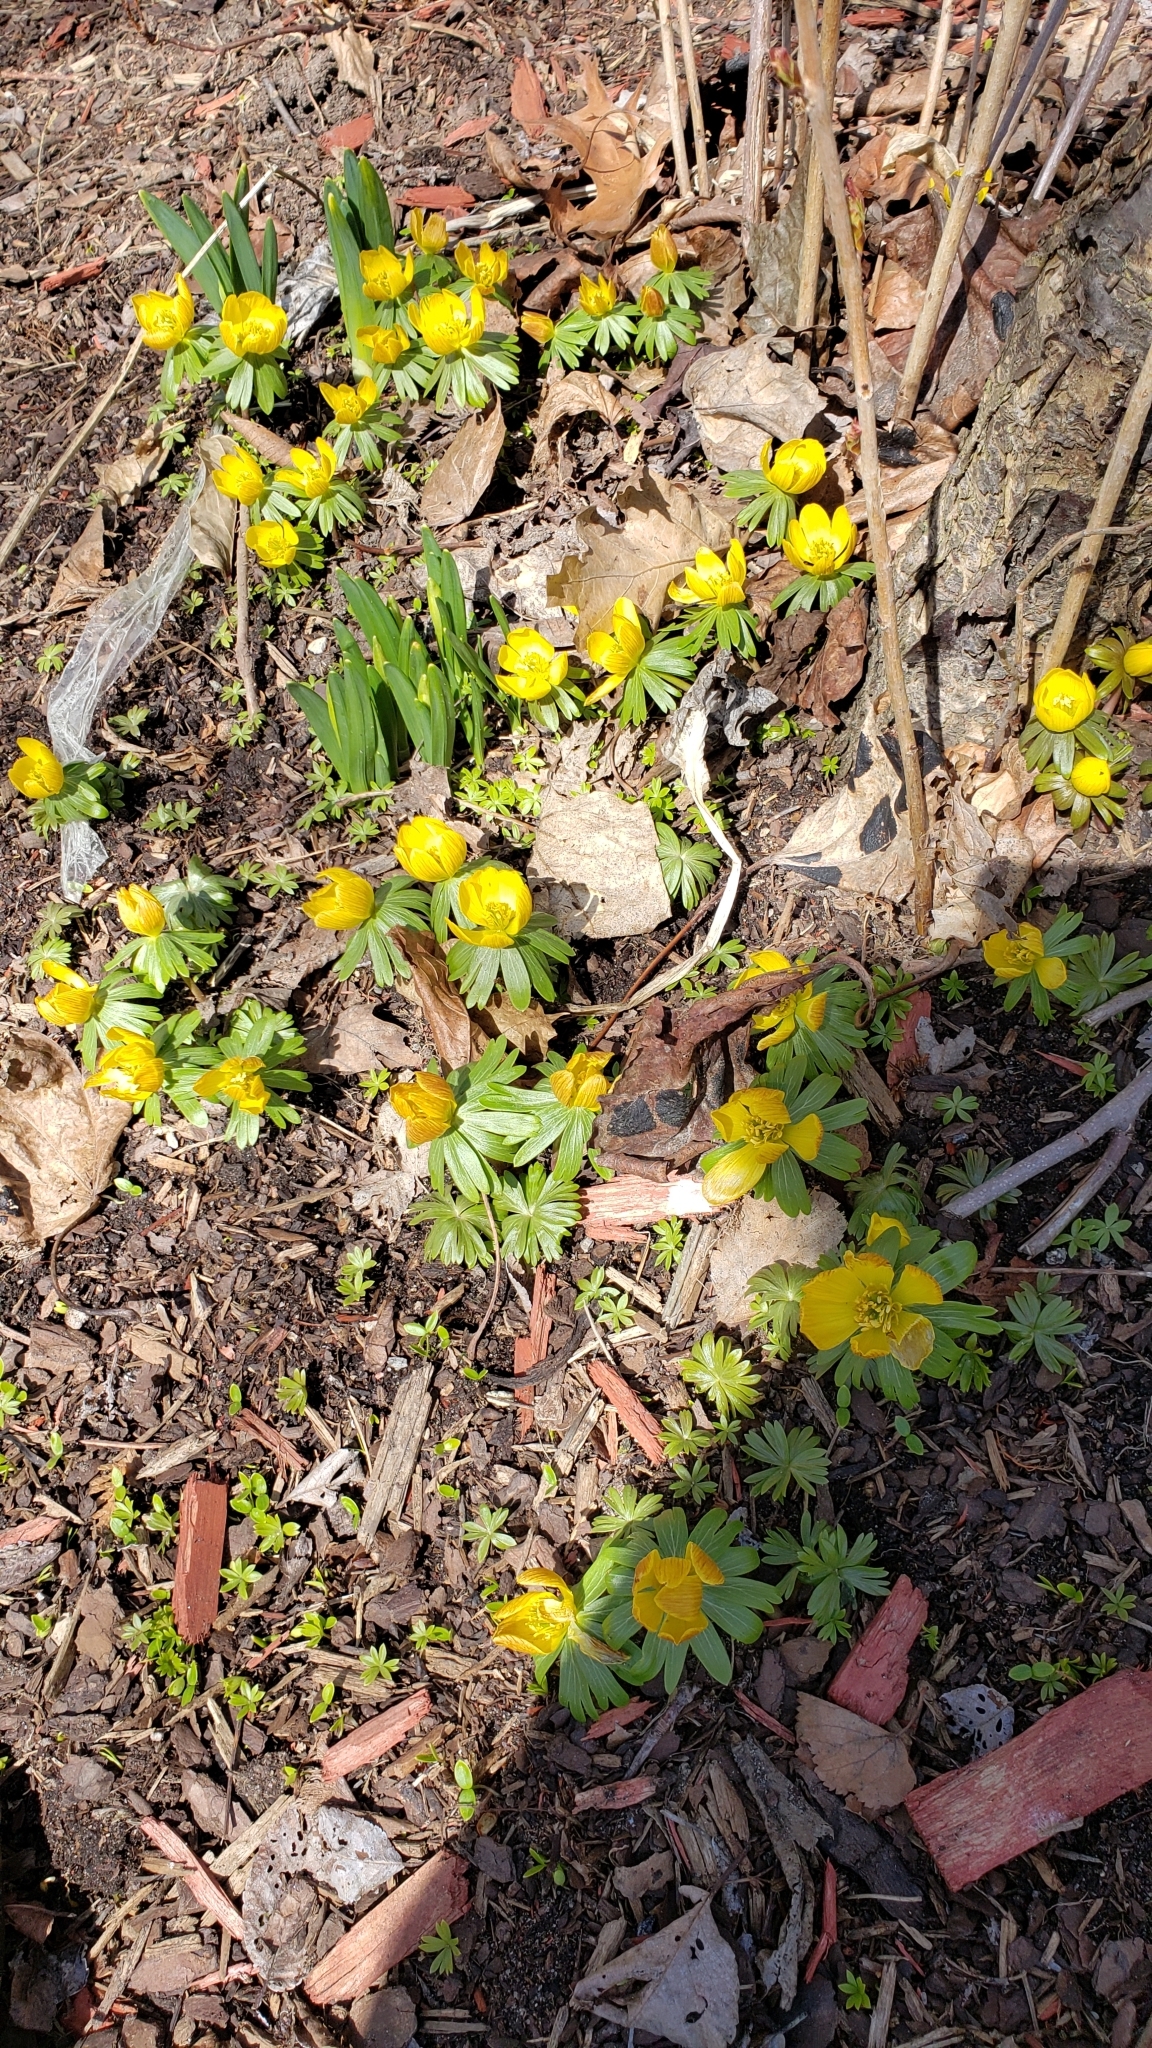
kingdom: Plantae
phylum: Tracheophyta
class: Magnoliopsida
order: Ranunculales
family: Ranunculaceae
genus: Eranthis
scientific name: Eranthis hyemalis
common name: Winter aconite
